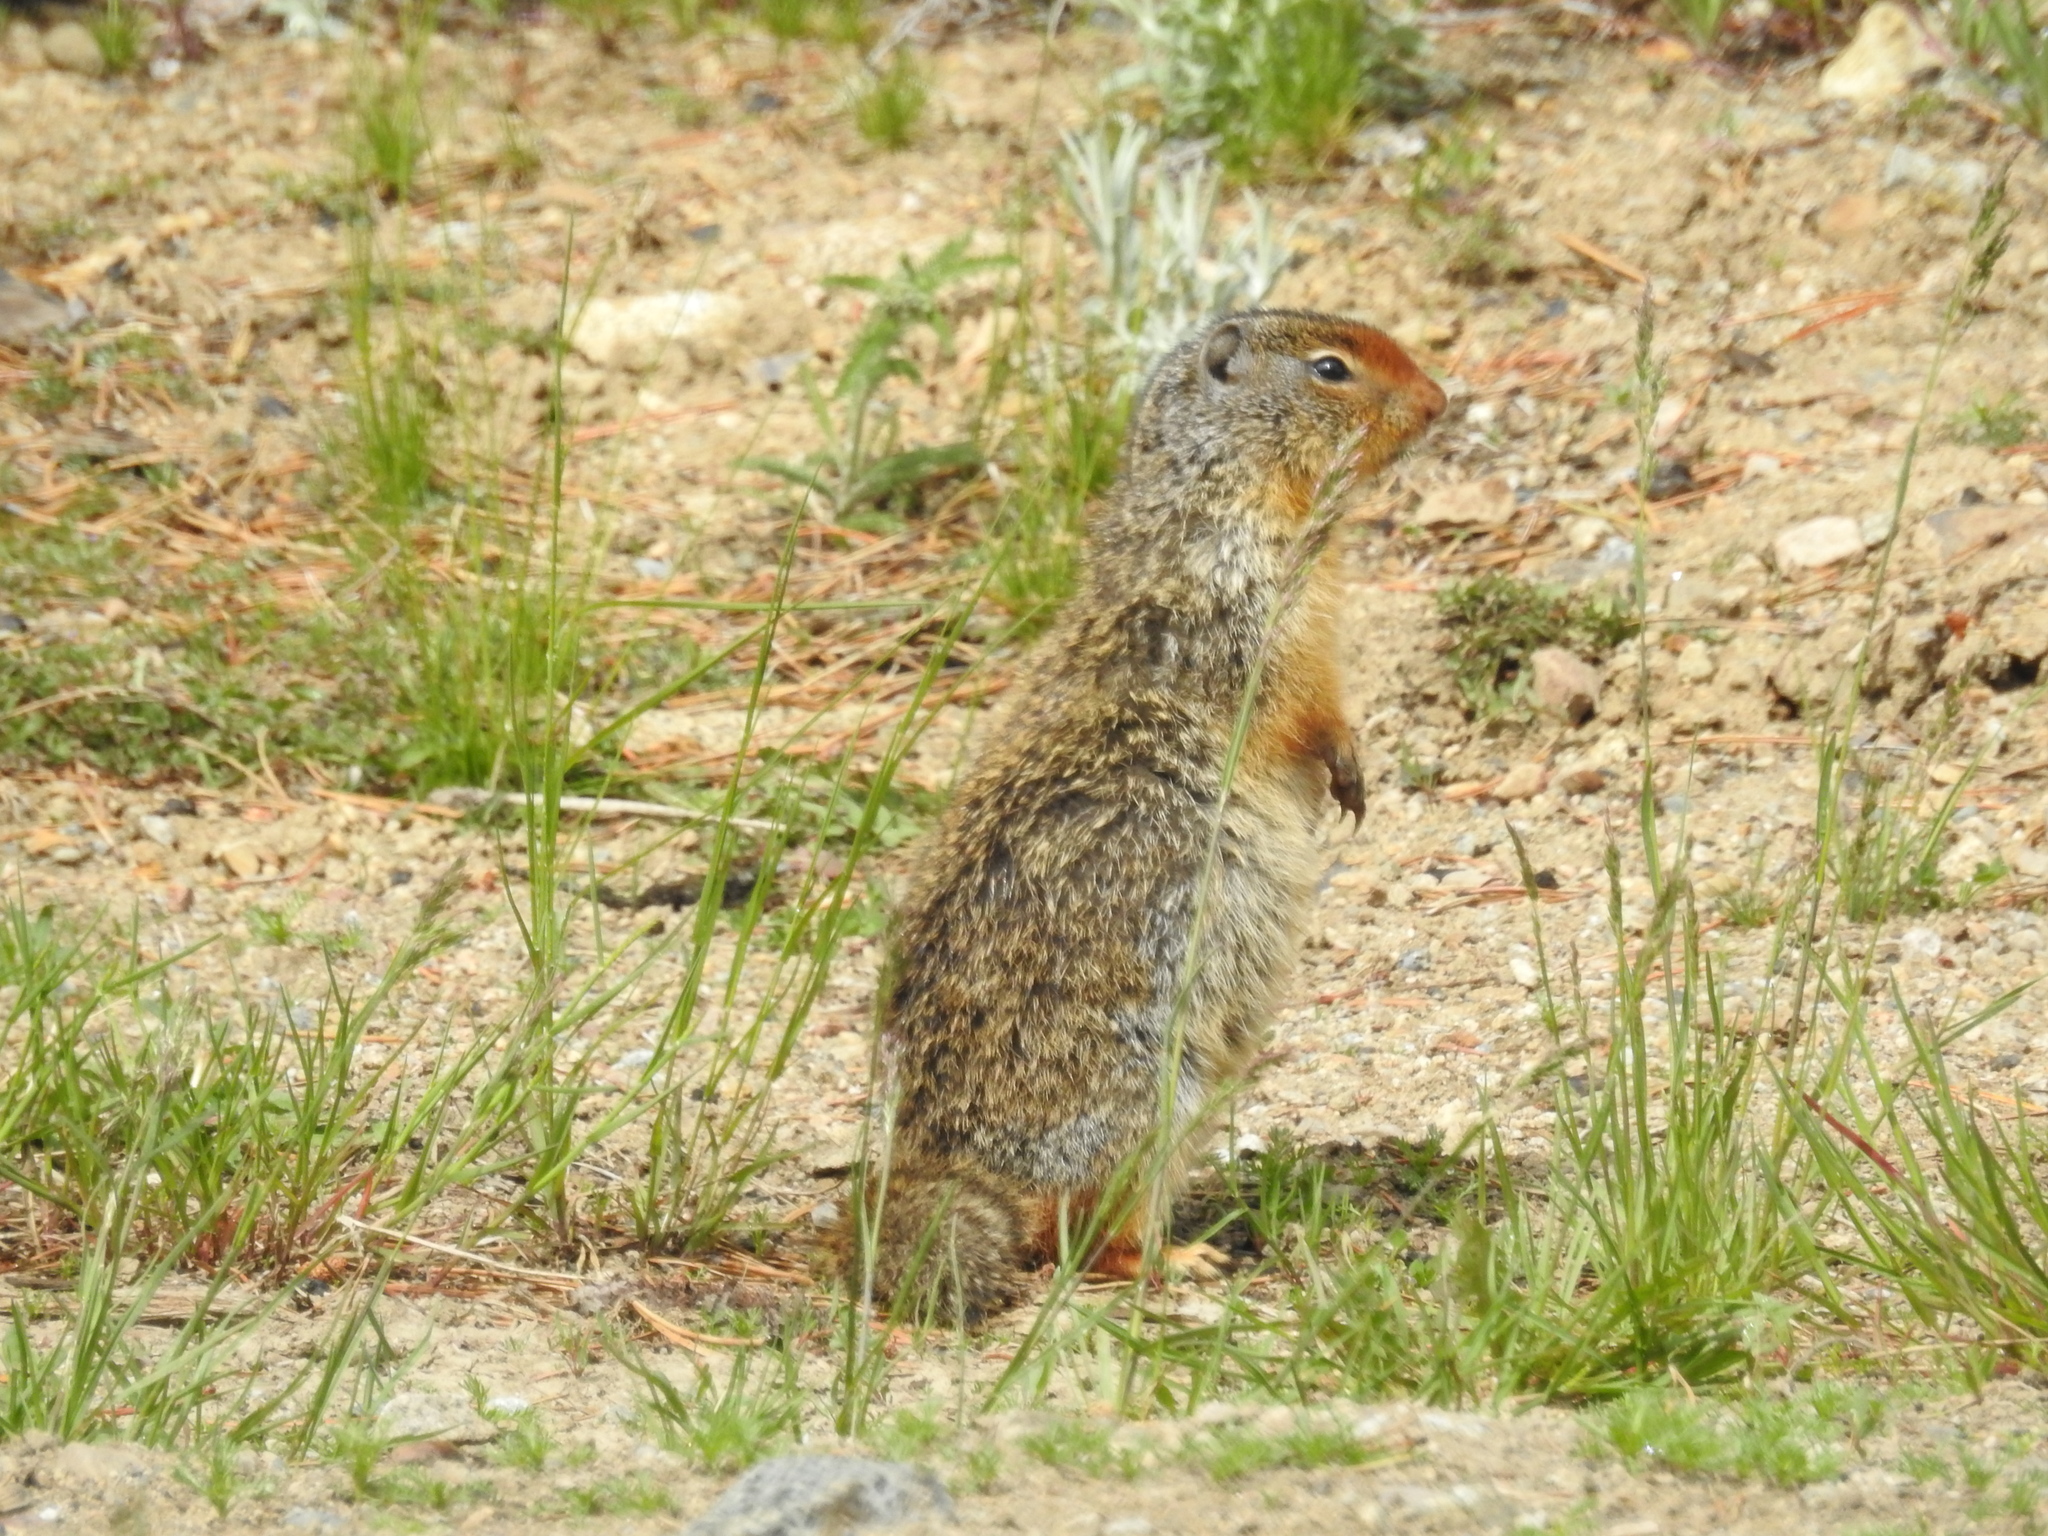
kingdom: Animalia
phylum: Chordata
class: Mammalia
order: Rodentia
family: Sciuridae
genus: Urocitellus
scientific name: Urocitellus columbianus
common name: Columbian ground squirrel
